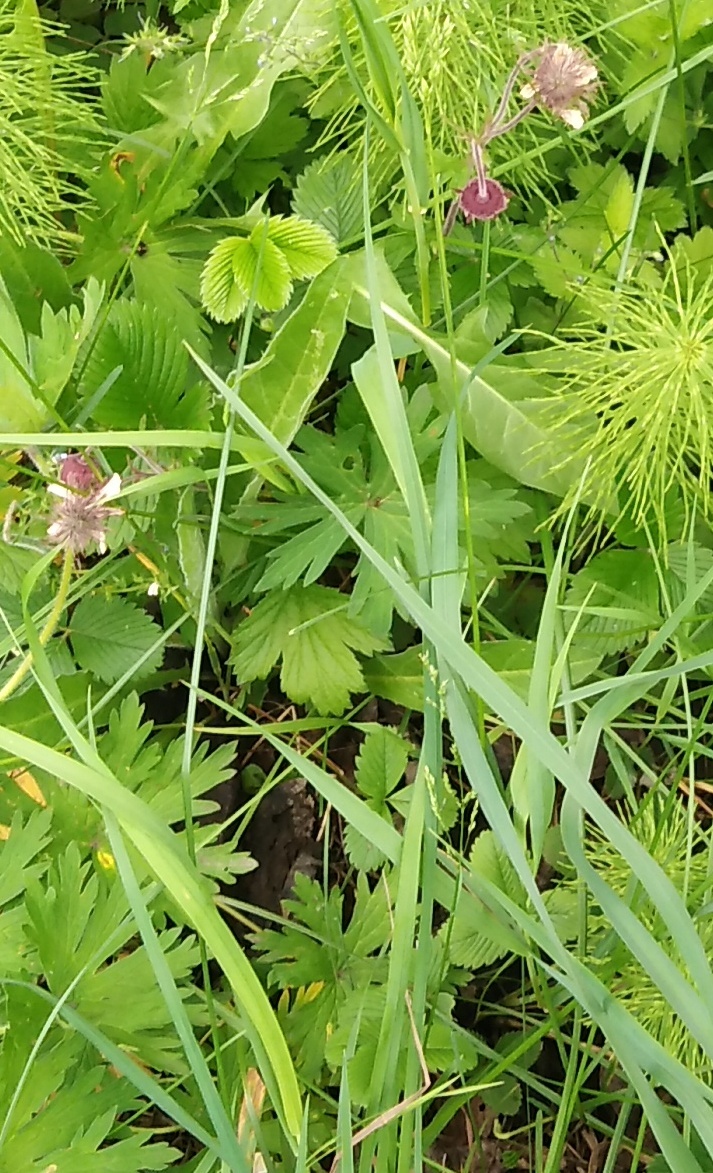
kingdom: Plantae
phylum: Tracheophyta
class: Magnoliopsida
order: Rosales
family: Rosaceae
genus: Geum
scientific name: Geum rivale
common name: Water avens
